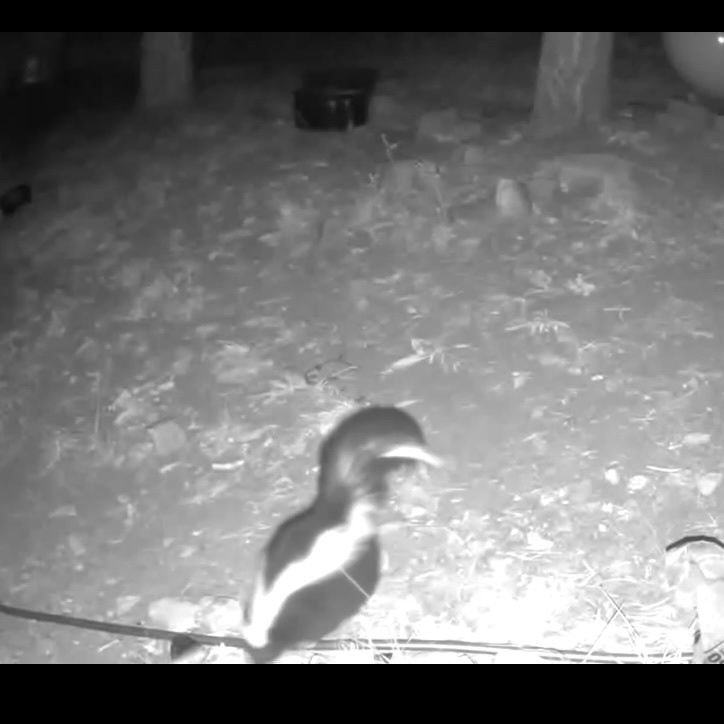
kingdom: Animalia
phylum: Chordata
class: Mammalia
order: Carnivora
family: Mephitidae
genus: Mephitis
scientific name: Mephitis mephitis
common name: Striped skunk
